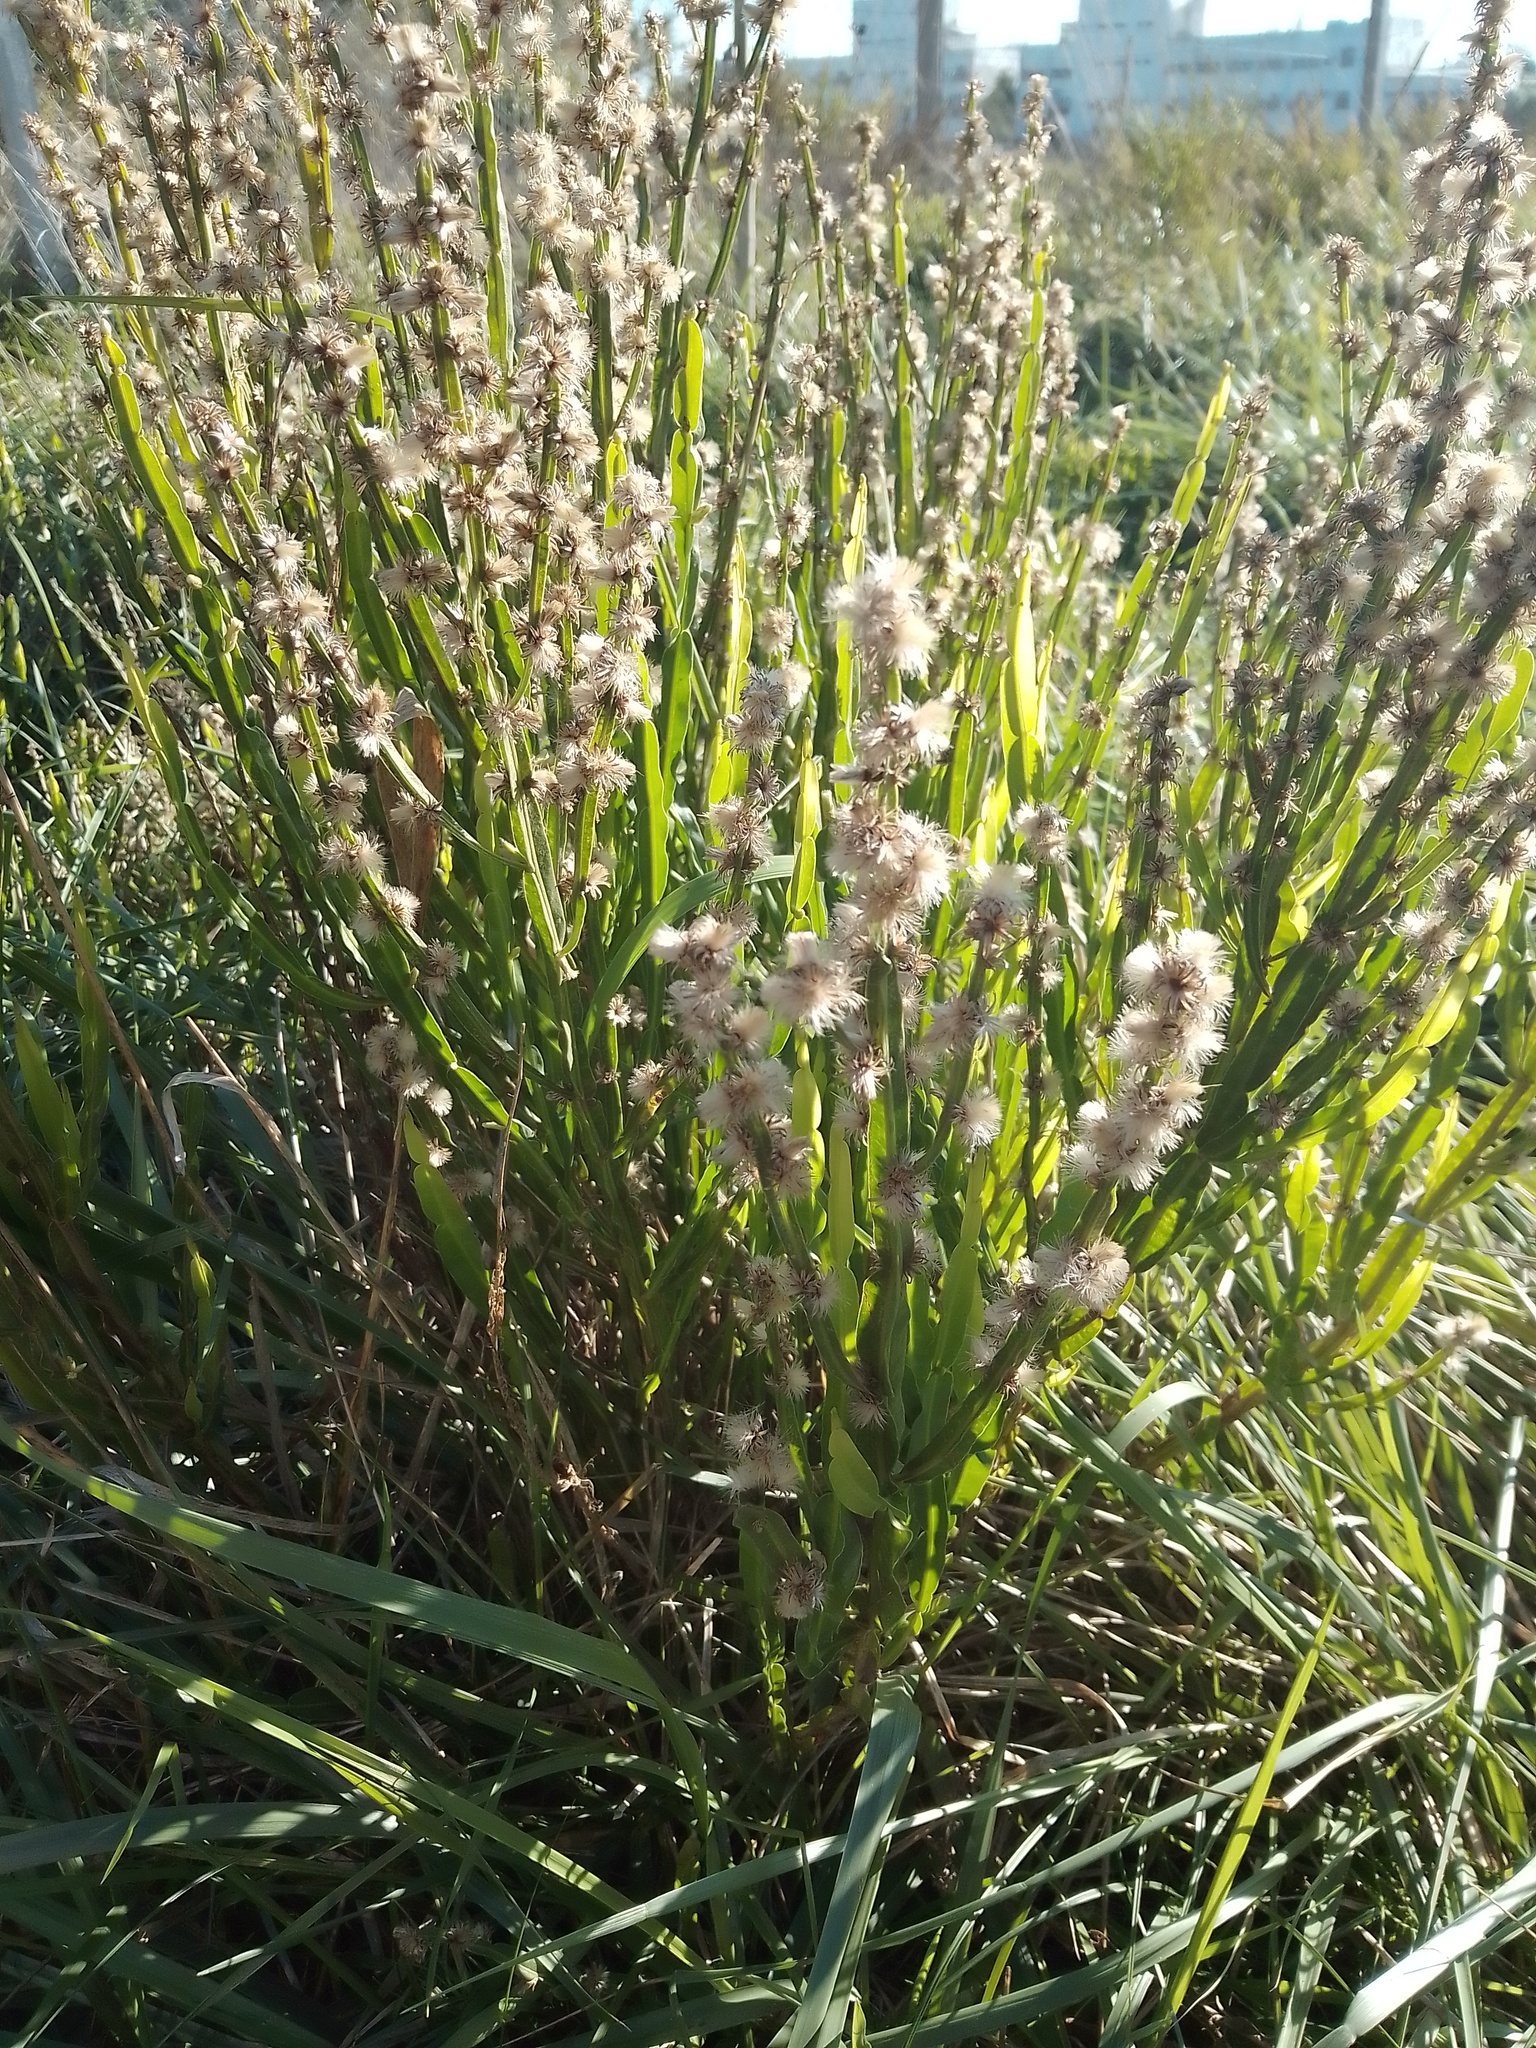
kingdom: Plantae
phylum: Tracheophyta
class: Magnoliopsida
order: Asterales
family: Asteraceae
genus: Baccharis
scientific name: Baccharis trimera
